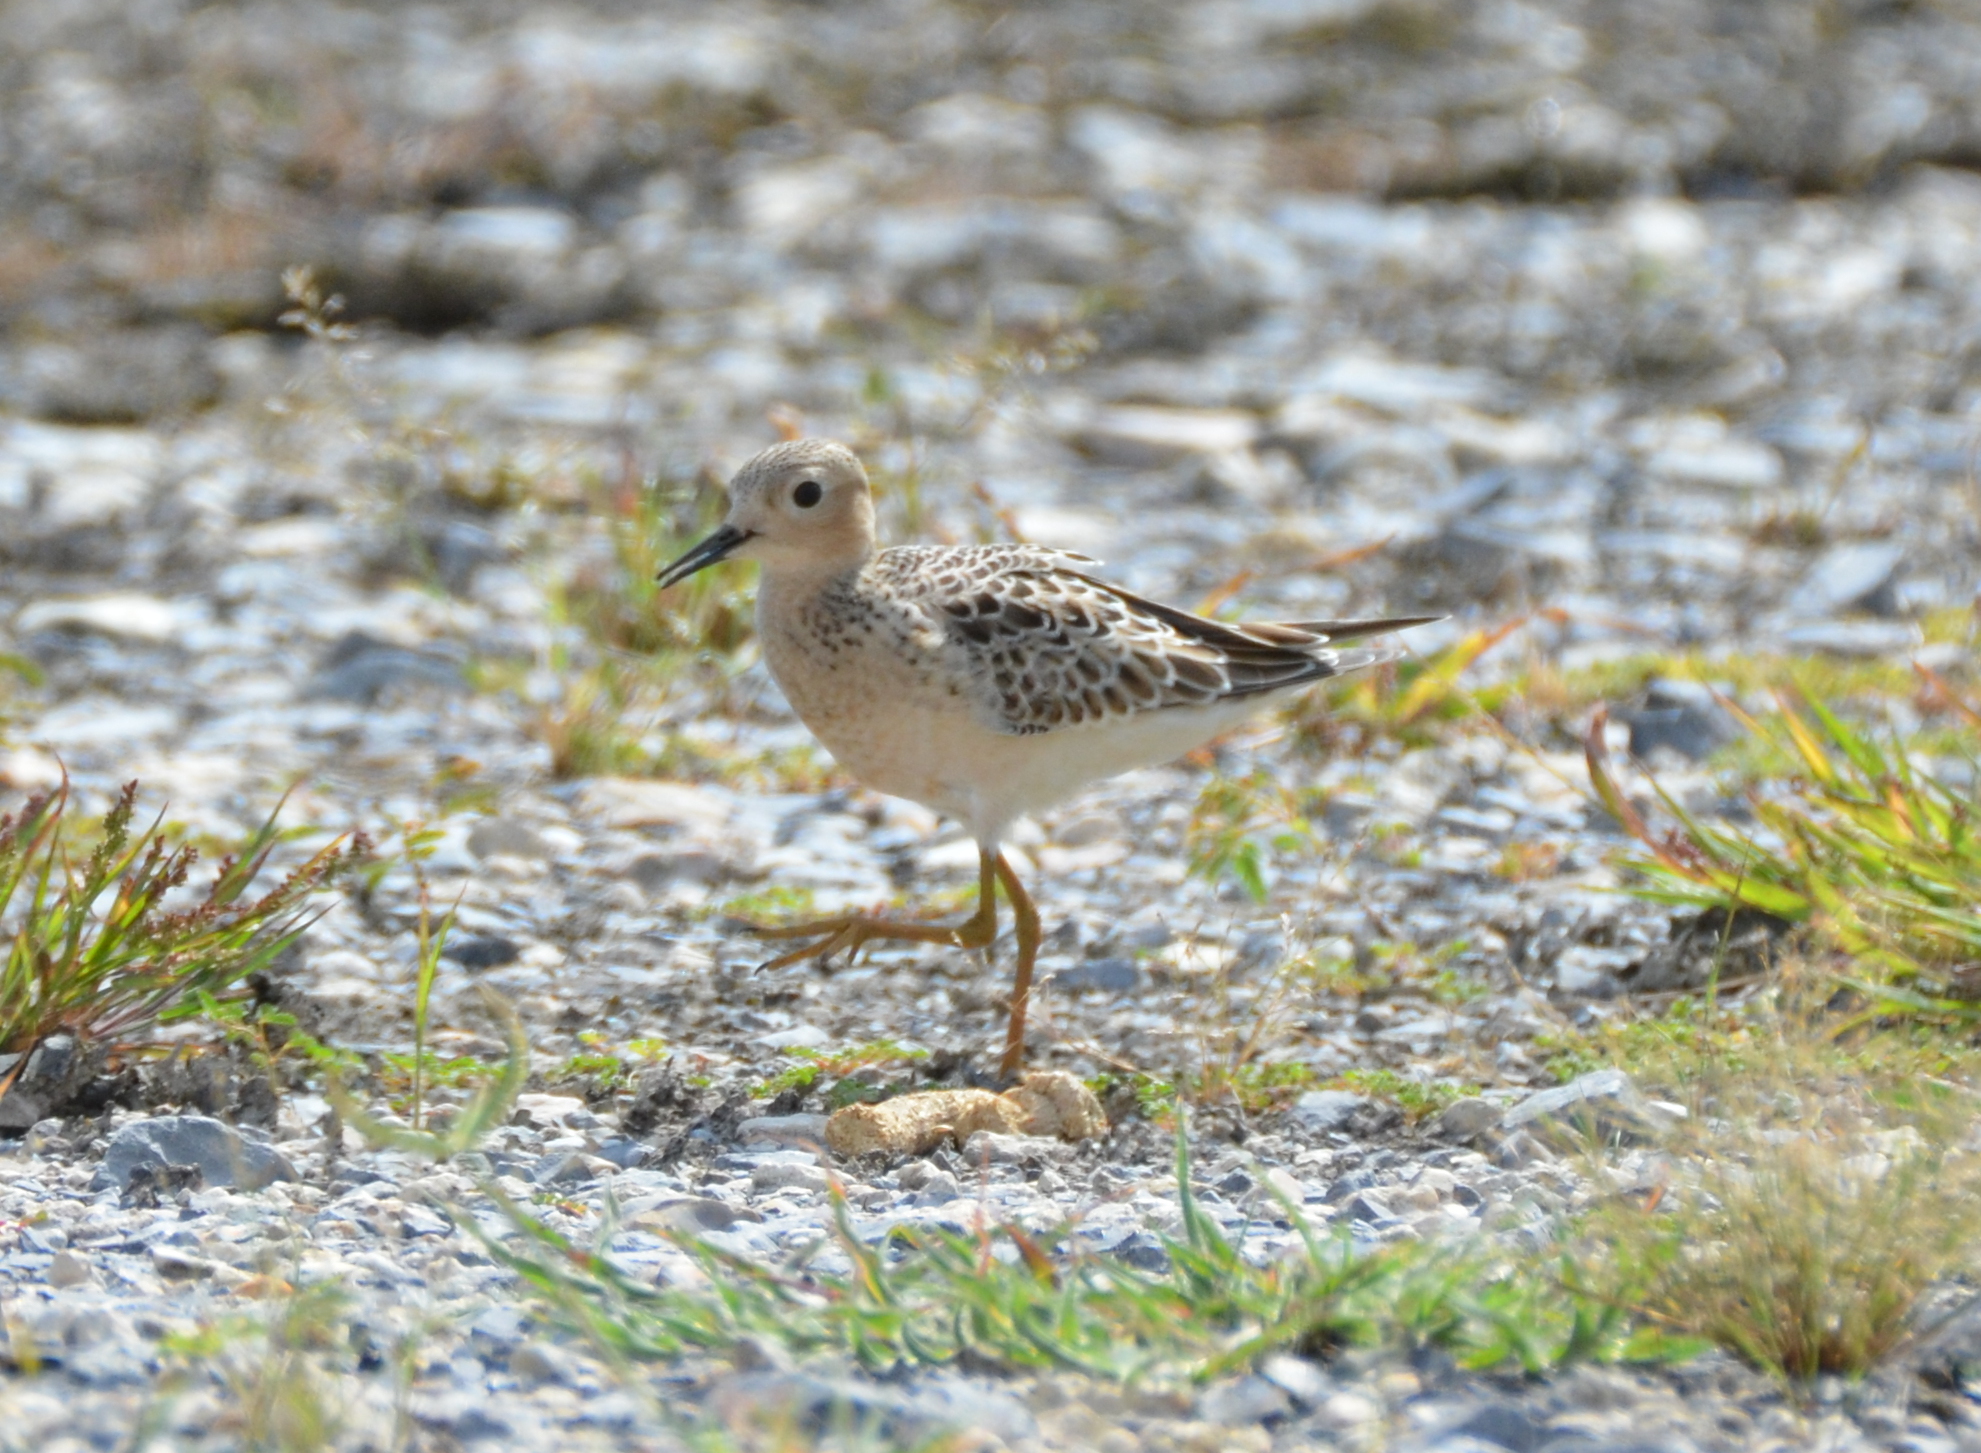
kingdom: Animalia
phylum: Chordata
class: Aves
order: Charadriiformes
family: Scolopacidae
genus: Calidris
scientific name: Calidris subruficollis
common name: Buff-breasted sandpiper
